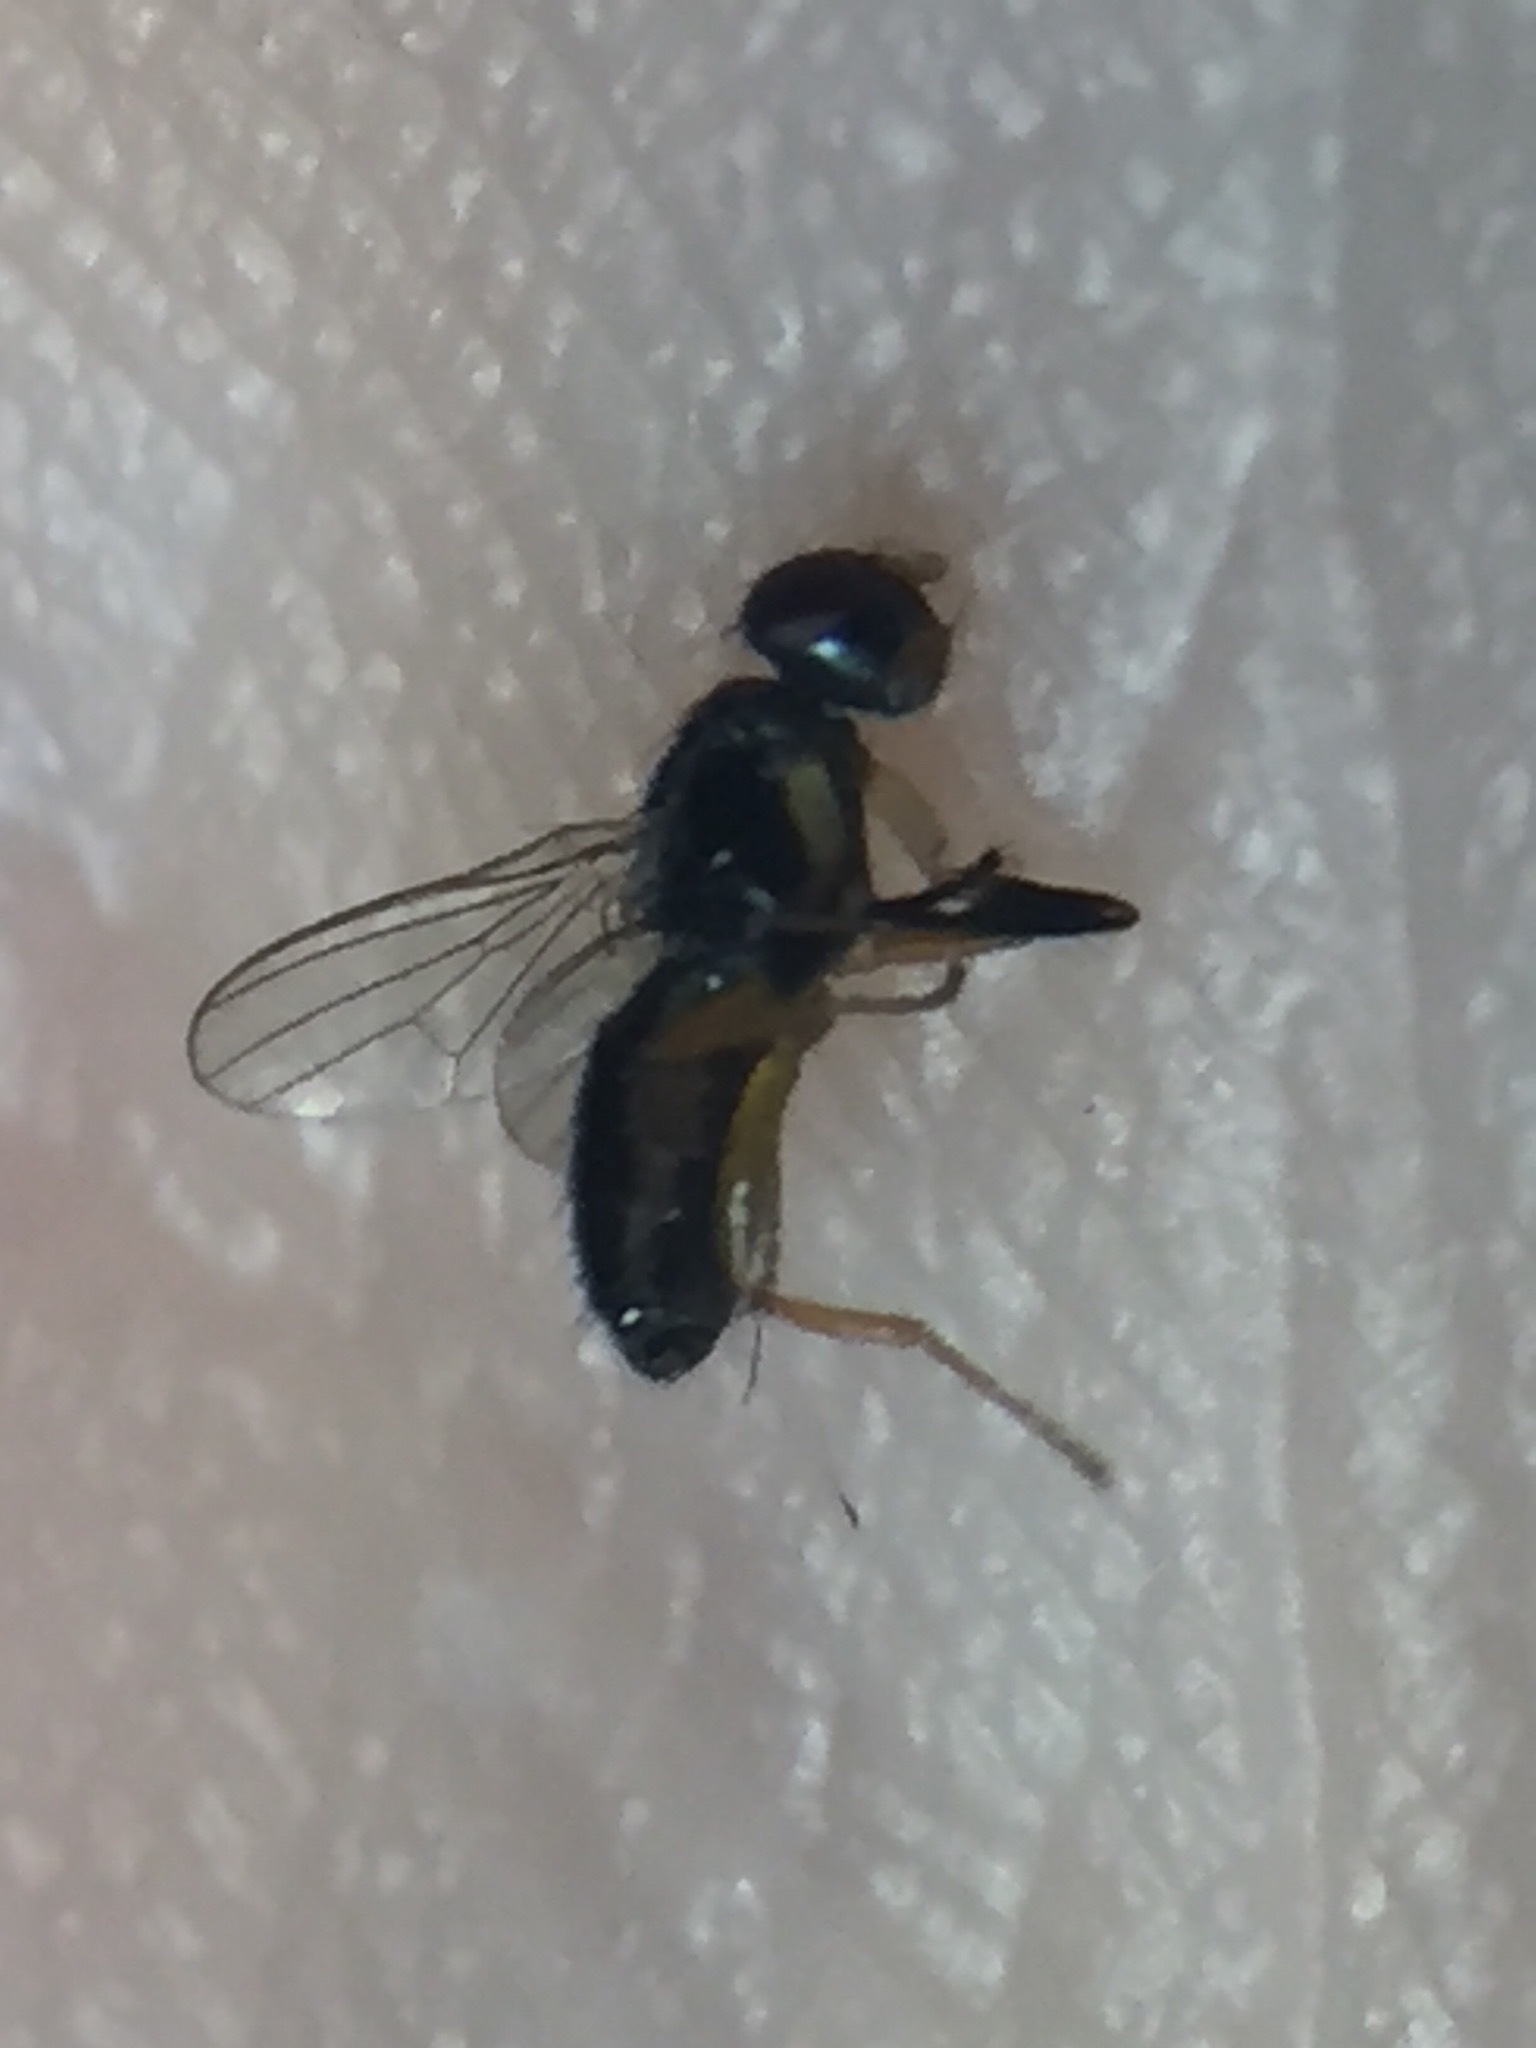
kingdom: Animalia
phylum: Arthropoda
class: Insecta
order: Diptera
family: Piophilidae
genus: Protopiophila
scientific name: Protopiophila australis
